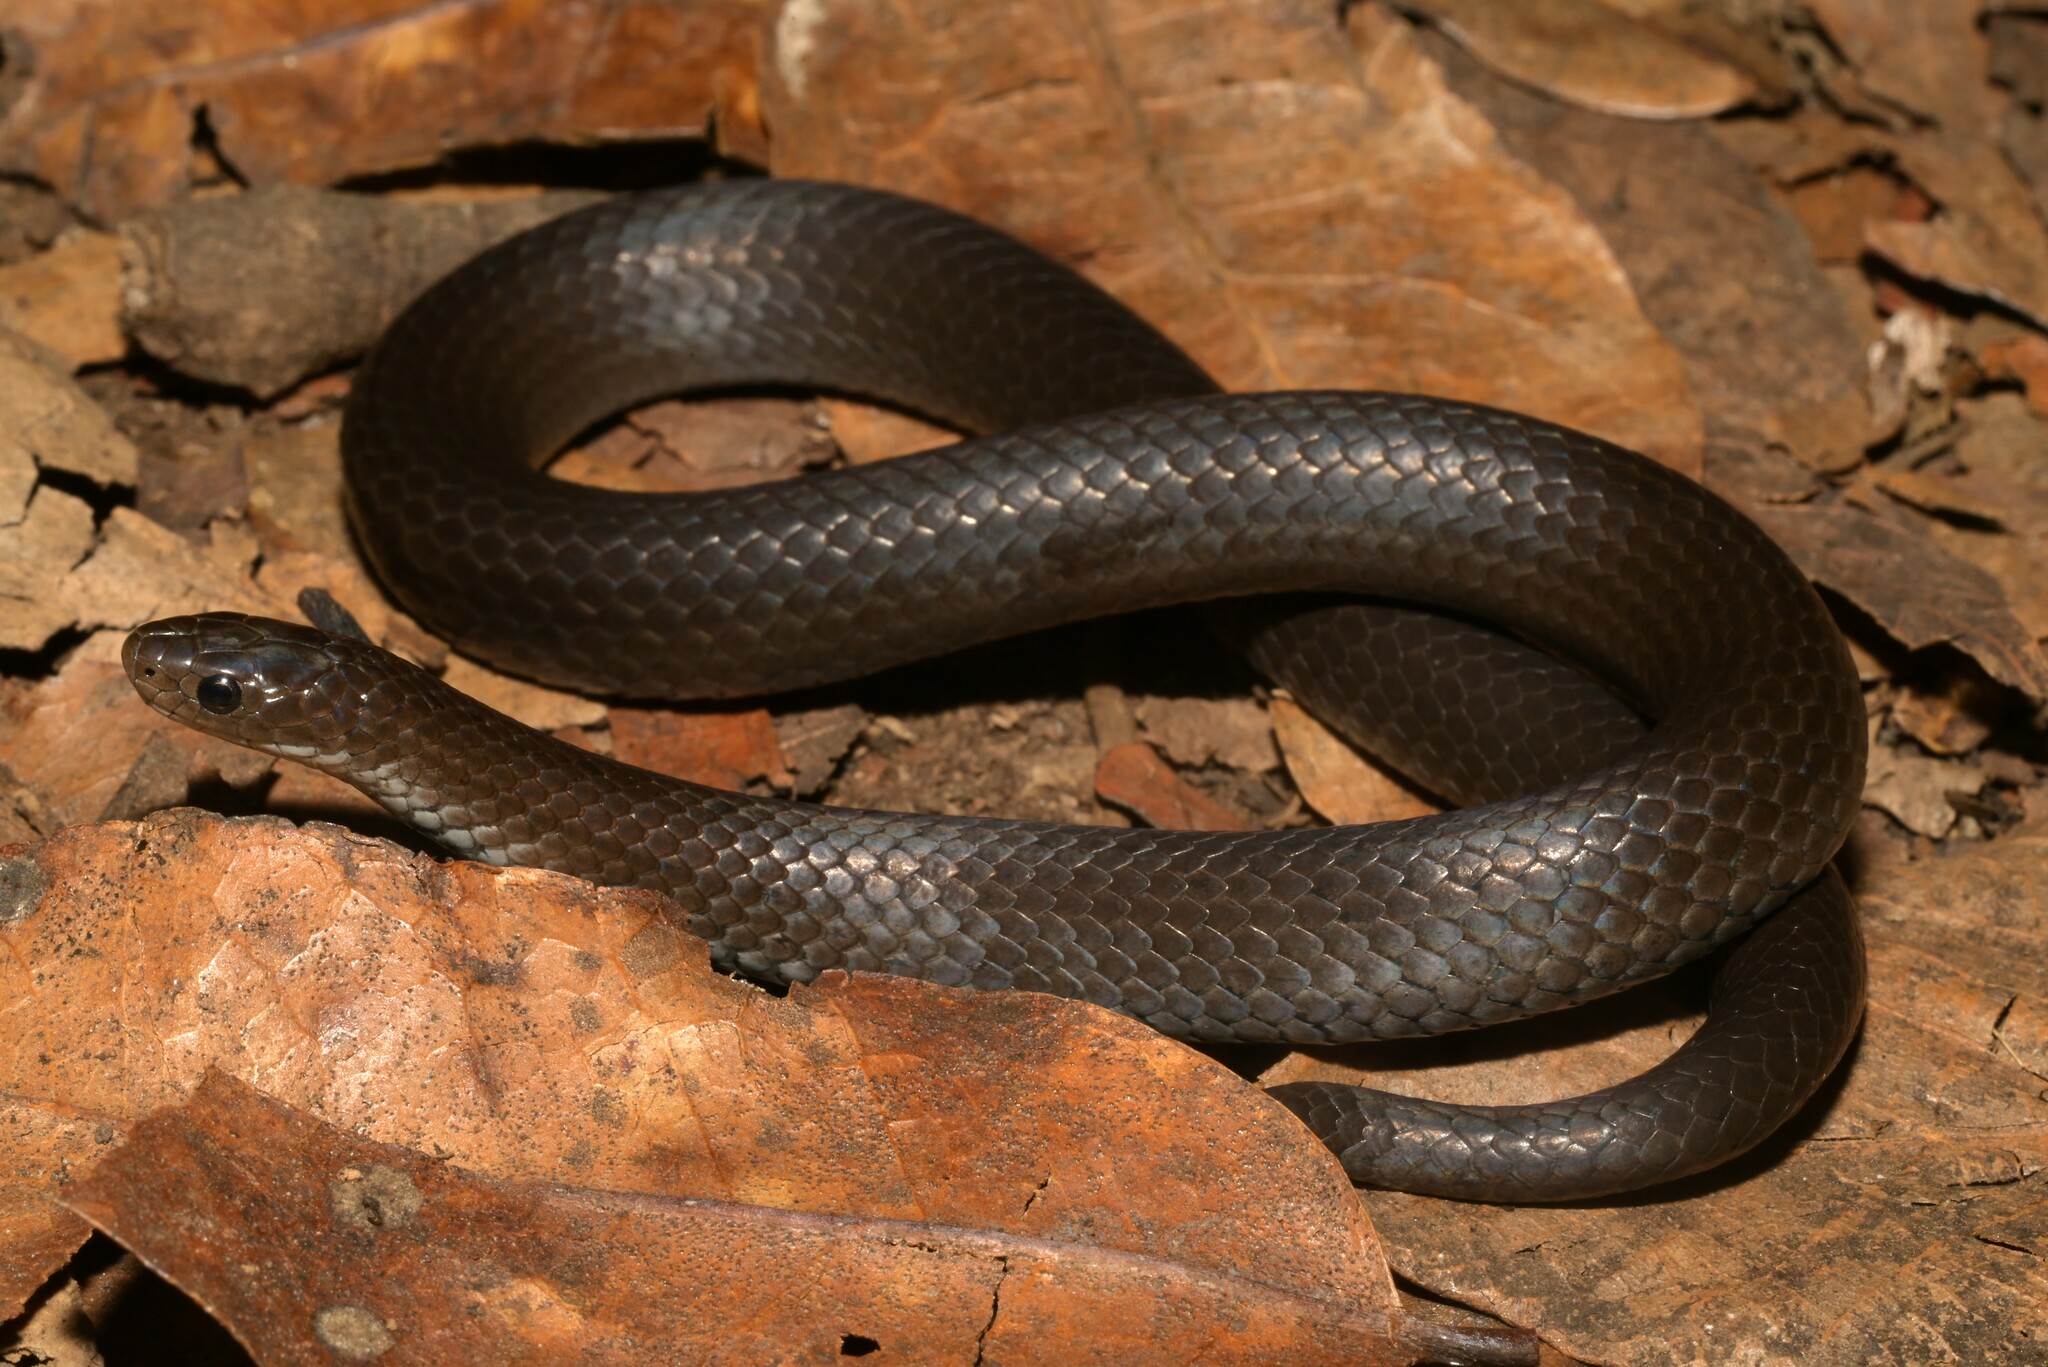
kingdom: Animalia
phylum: Chordata
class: Squamata
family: Pseudoxyrhophiidae
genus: Duberria
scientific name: Duberria lutrix
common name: Common slug eater
